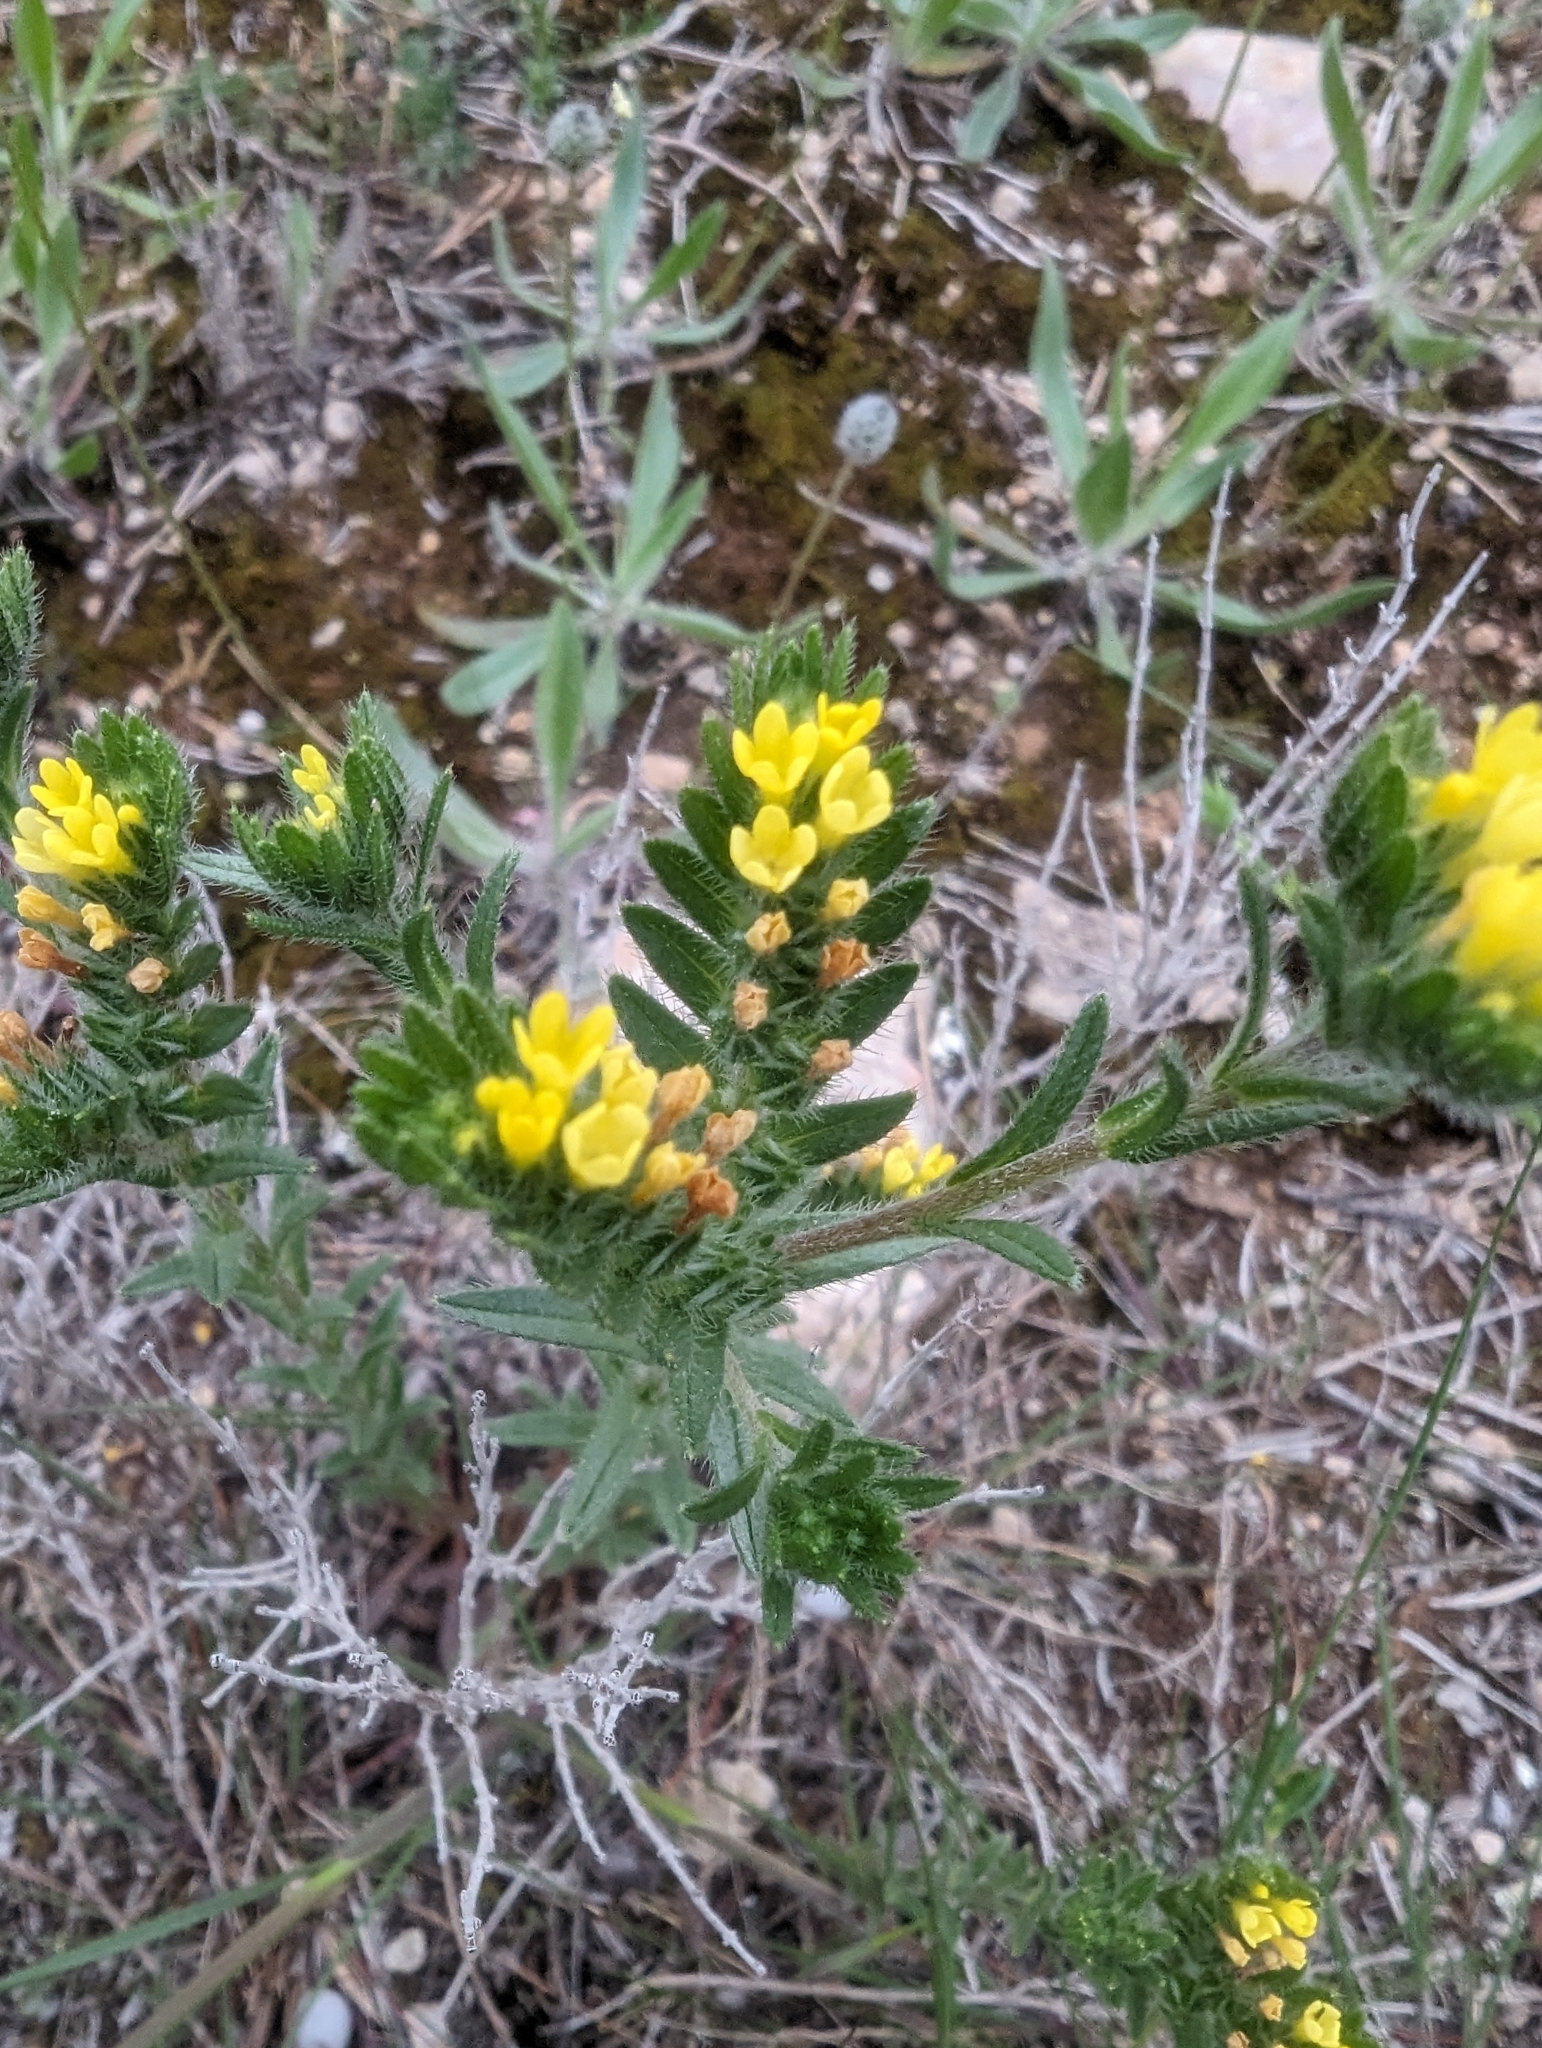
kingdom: Plantae
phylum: Tracheophyta
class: Magnoliopsida
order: Boraginales
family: Boraginaceae
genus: Neatostema
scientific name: Neatostema apulum
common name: Hairy sheepweed
